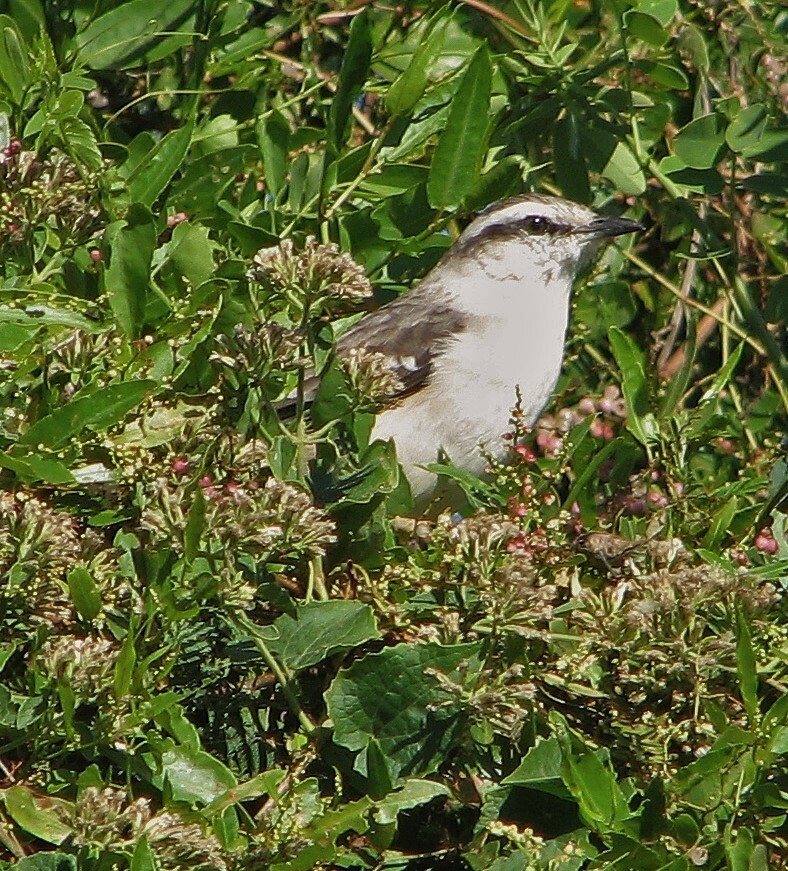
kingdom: Animalia
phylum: Chordata
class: Aves
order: Passeriformes
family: Mimidae
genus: Mimus
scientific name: Mimus saturninus
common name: Chalk-browed mockingbird
